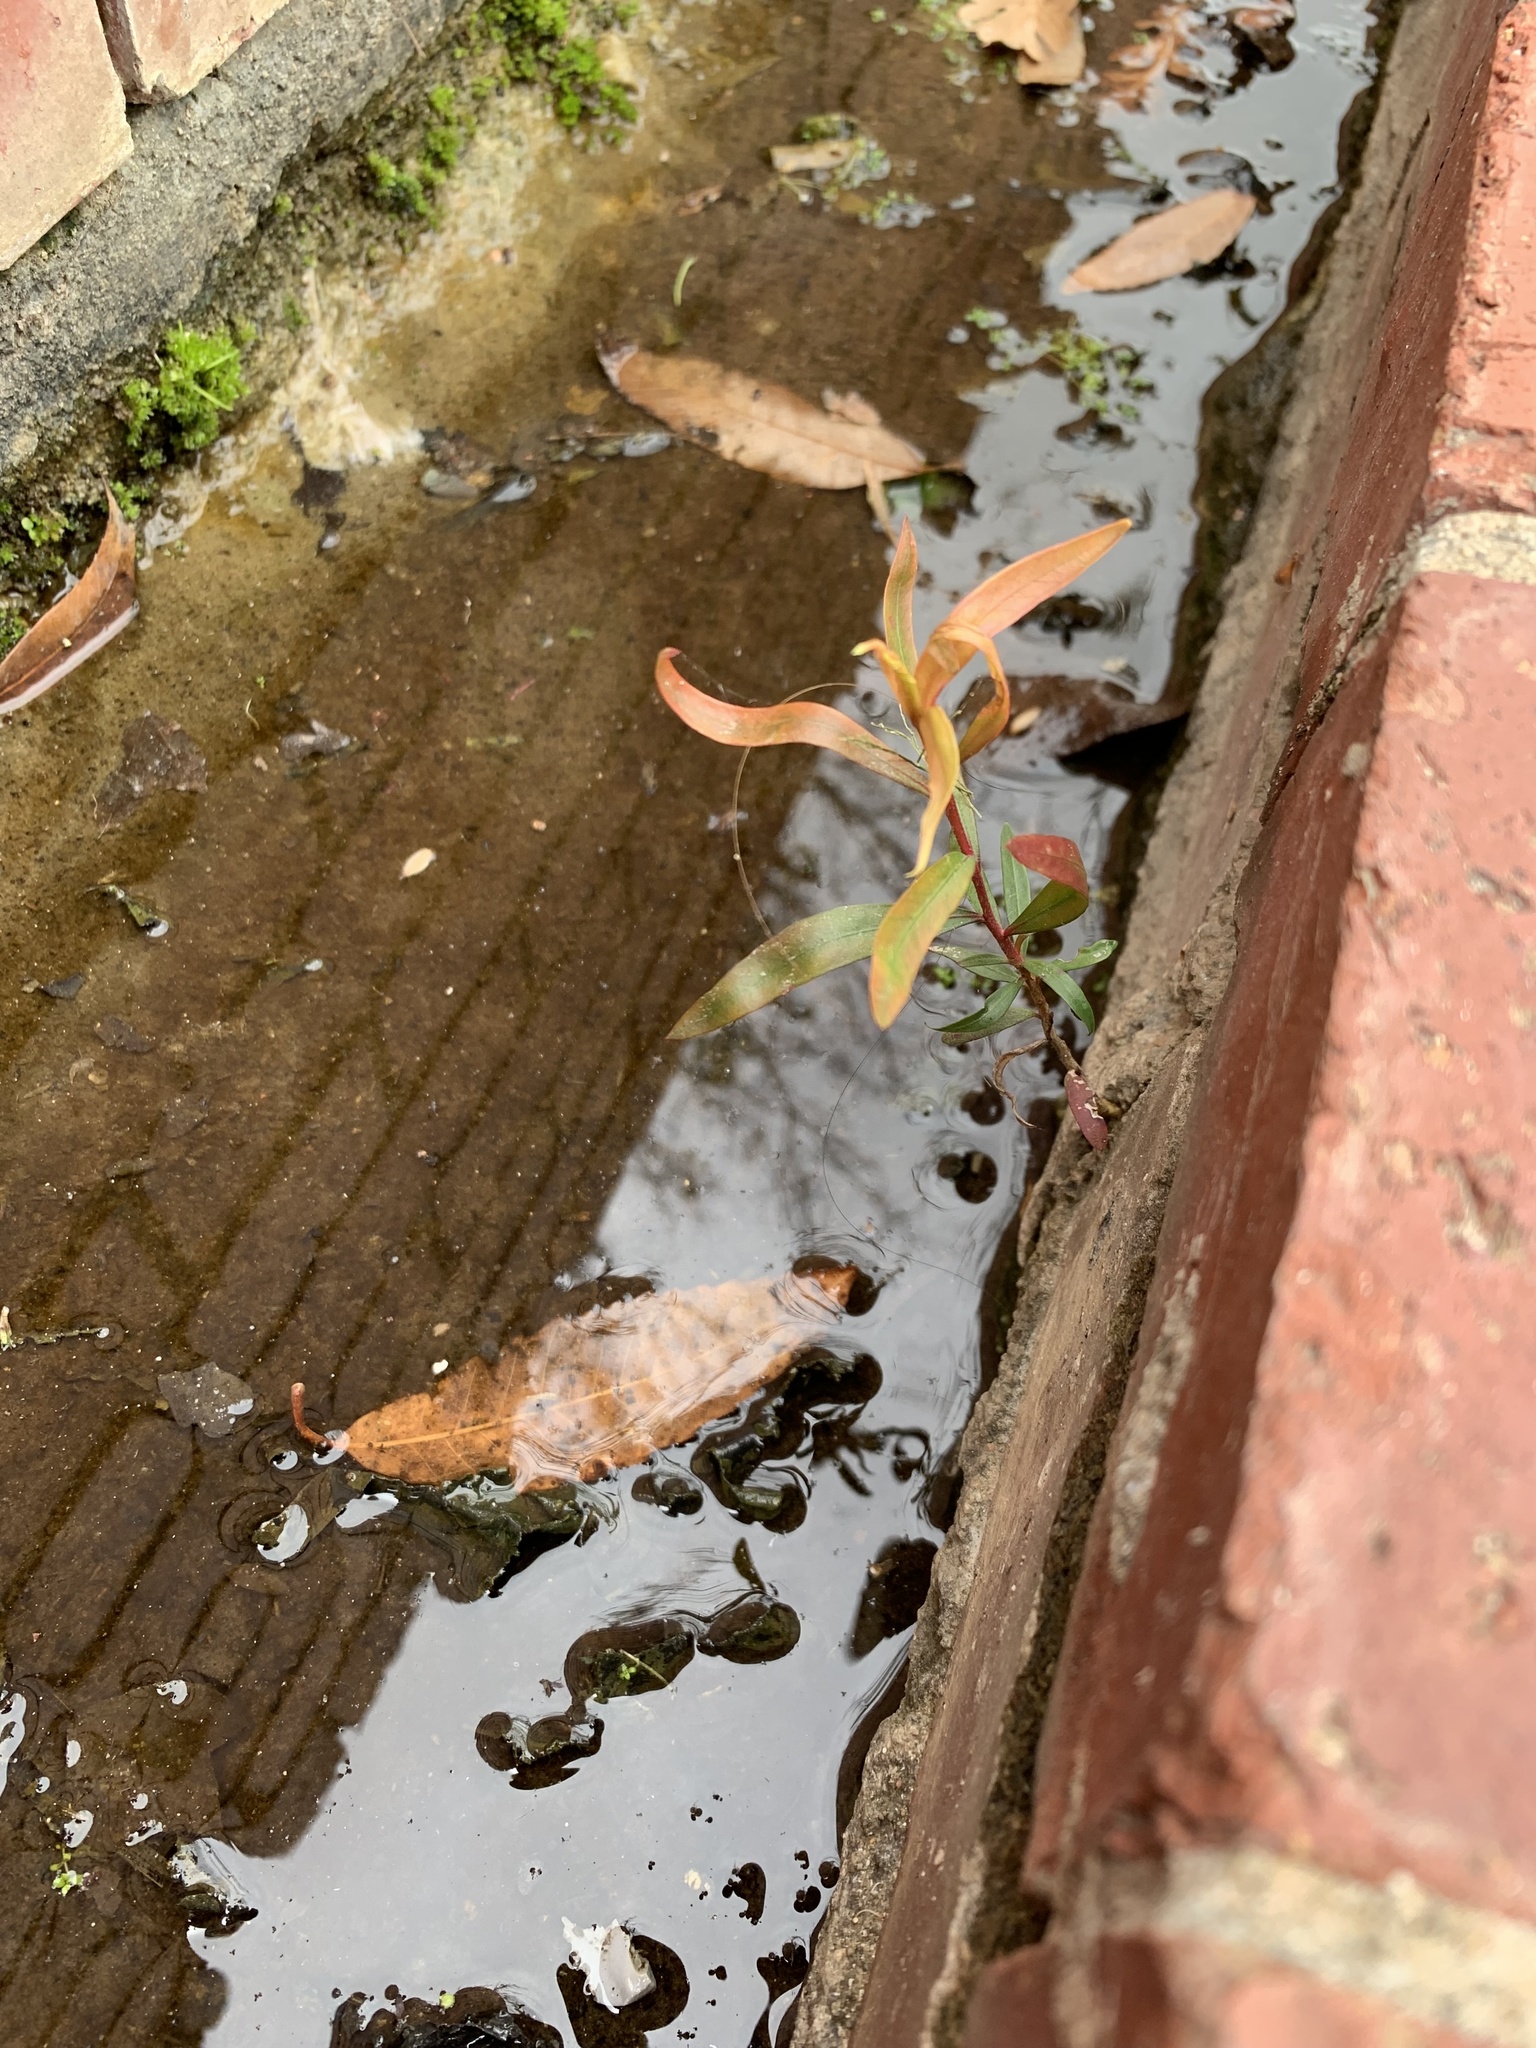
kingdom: Plantae
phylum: Tracheophyta
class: Magnoliopsida
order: Myrtales
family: Myrtaceae
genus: Callistemon
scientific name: Callistemon viminalis
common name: Drooping bottlebrush
